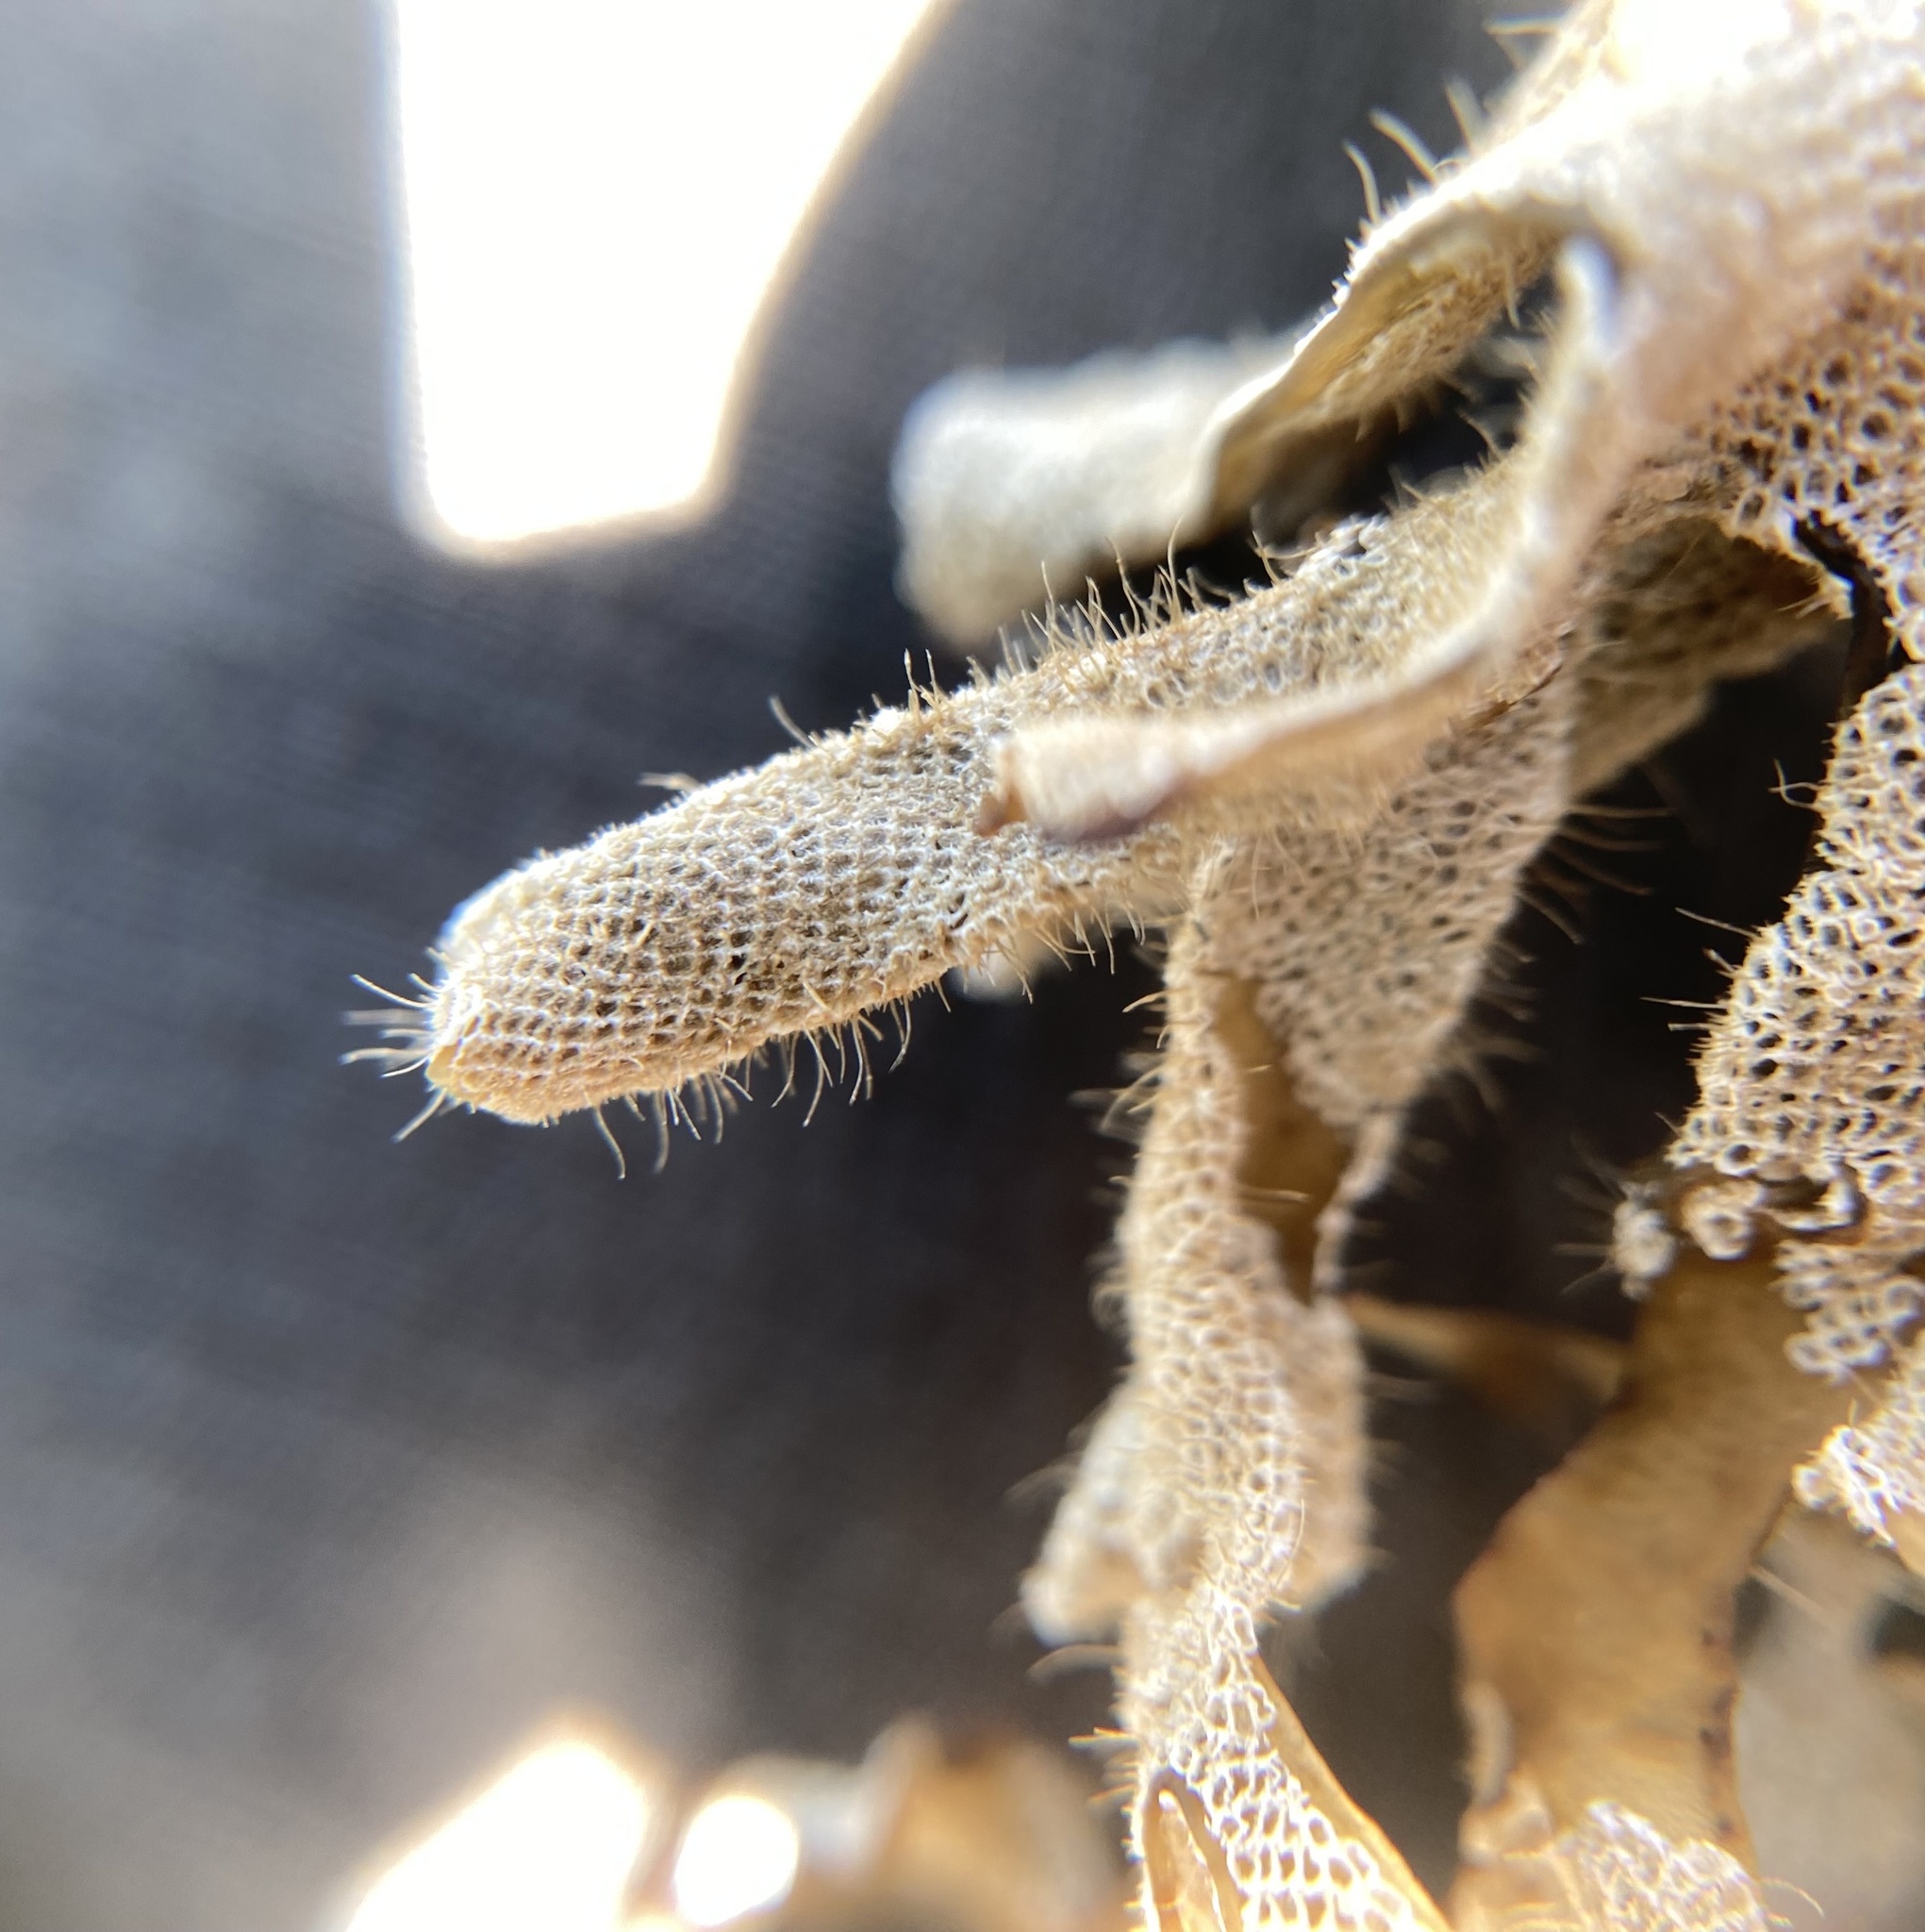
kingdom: Animalia
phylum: Bryozoa
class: Gymnolaemata
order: Cheilostomatida
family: Electridae
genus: Electra
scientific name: Electra pilosa
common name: Hairy sea-mat
